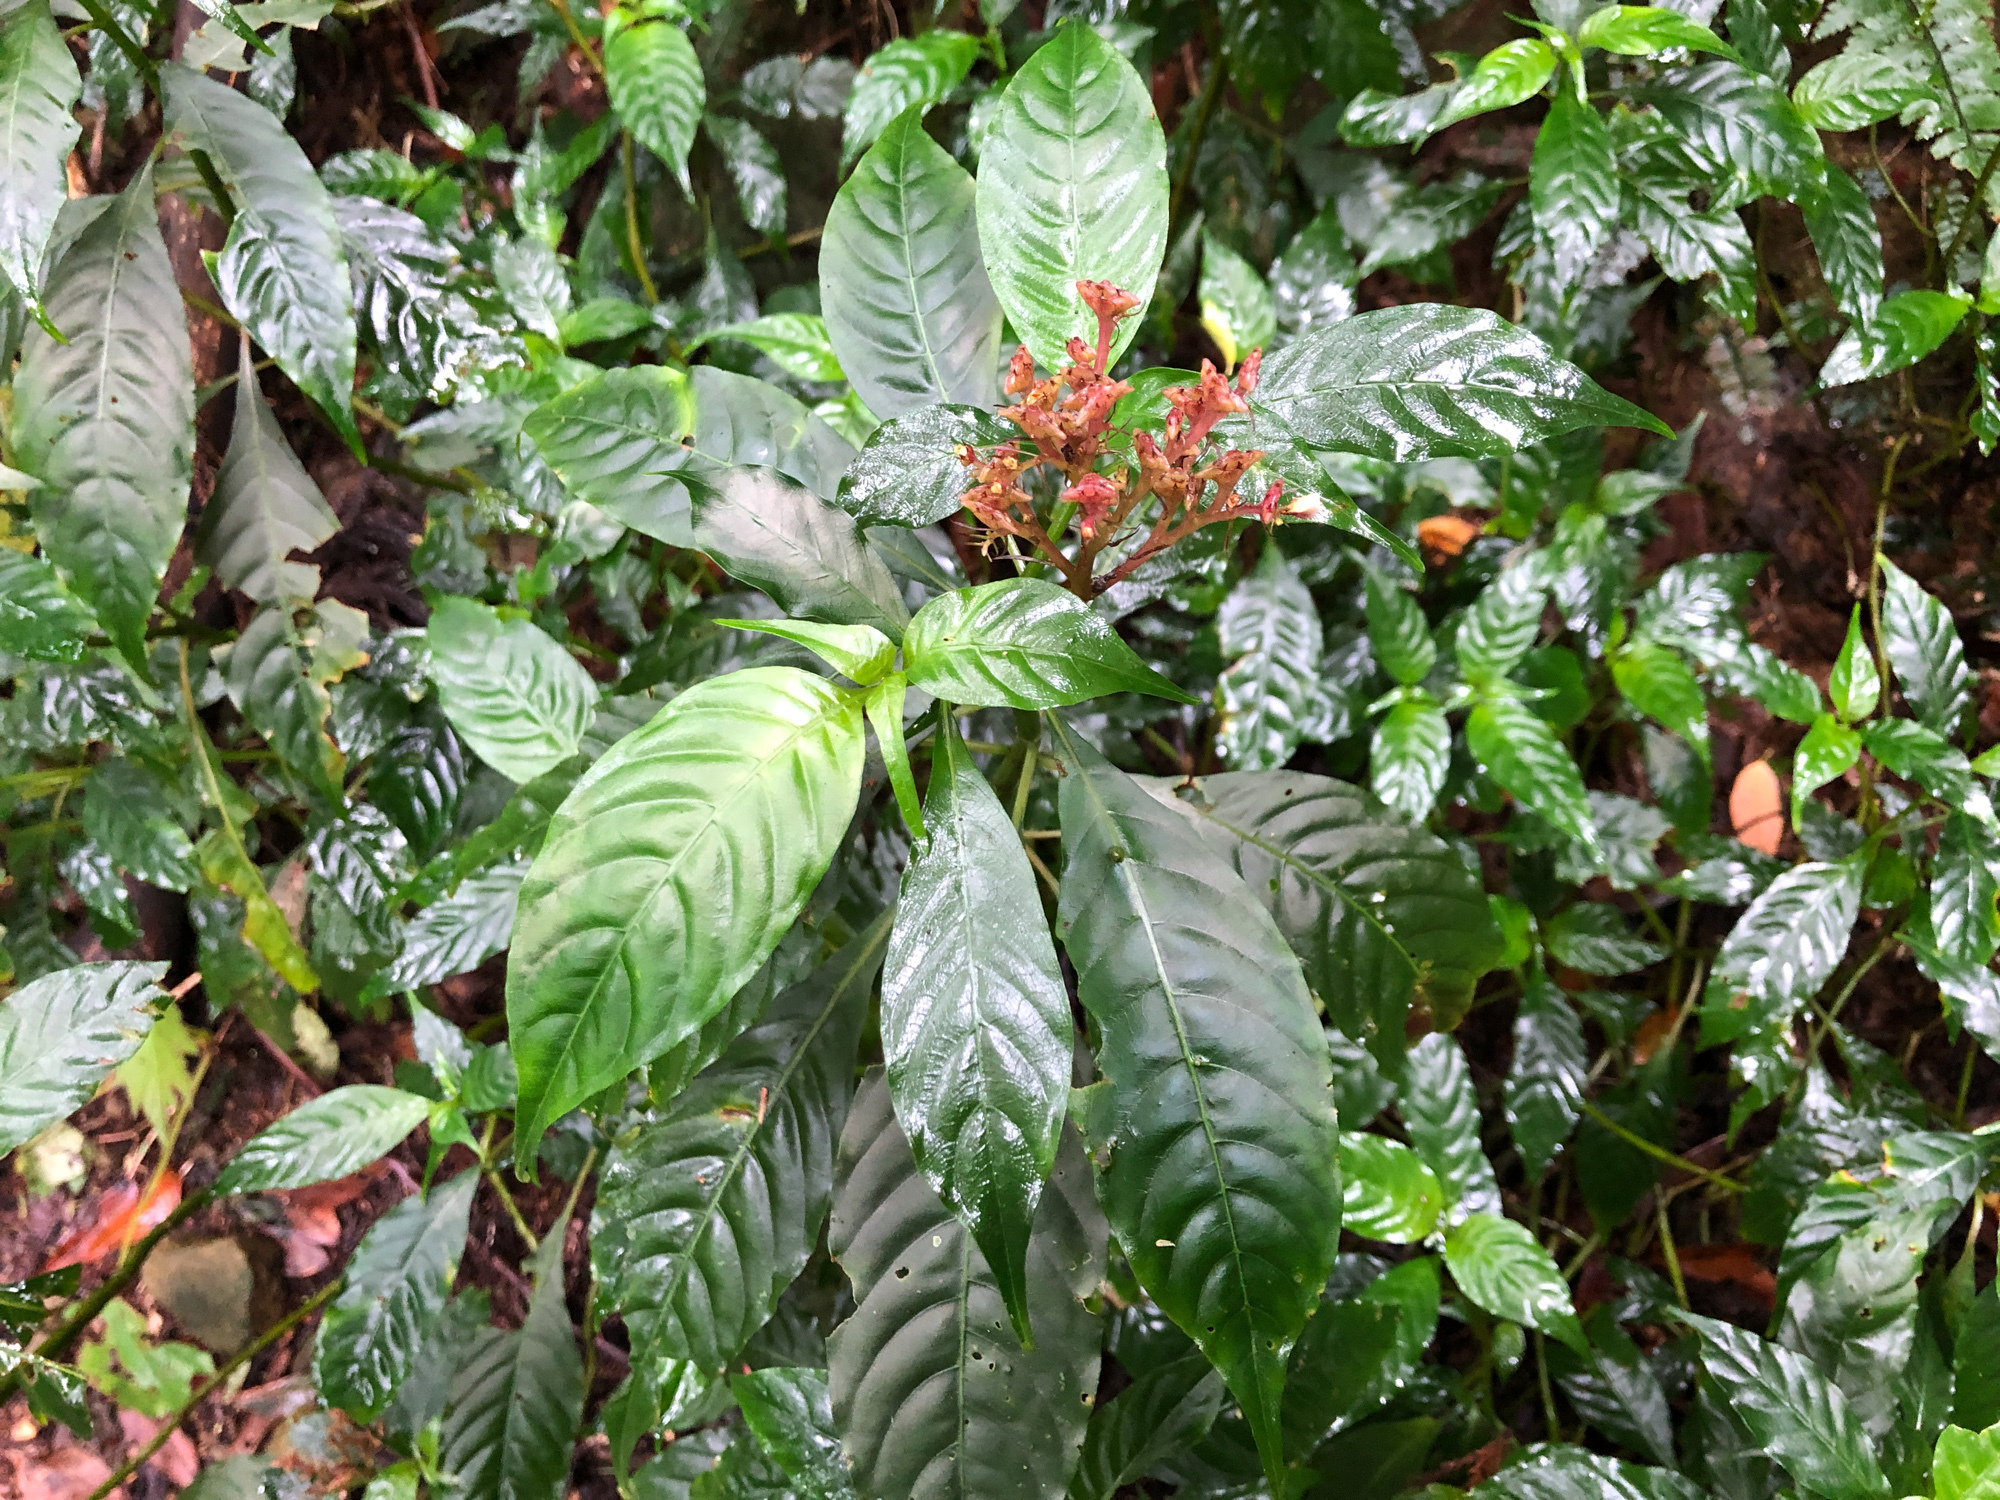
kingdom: Plantae
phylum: Tracheophyta
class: Magnoliopsida
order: Gentianales
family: Rubiaceae
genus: Ophiorrhiza
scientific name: Ophiorrhiza japonica
